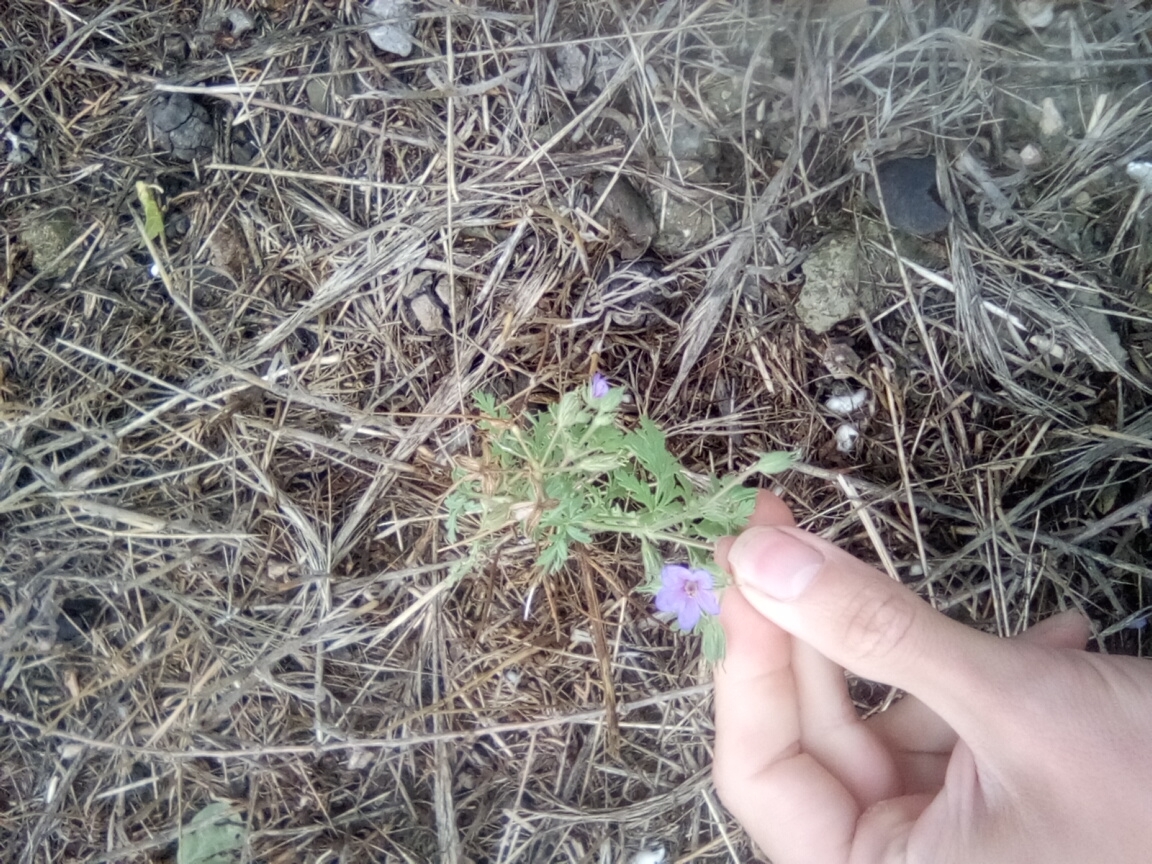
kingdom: Plantae
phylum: Tracheophyta
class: Magnoliopsida
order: Geraniales
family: Geraniaceae
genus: Erodium
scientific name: Erodium ciconium
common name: Common stork's bill
